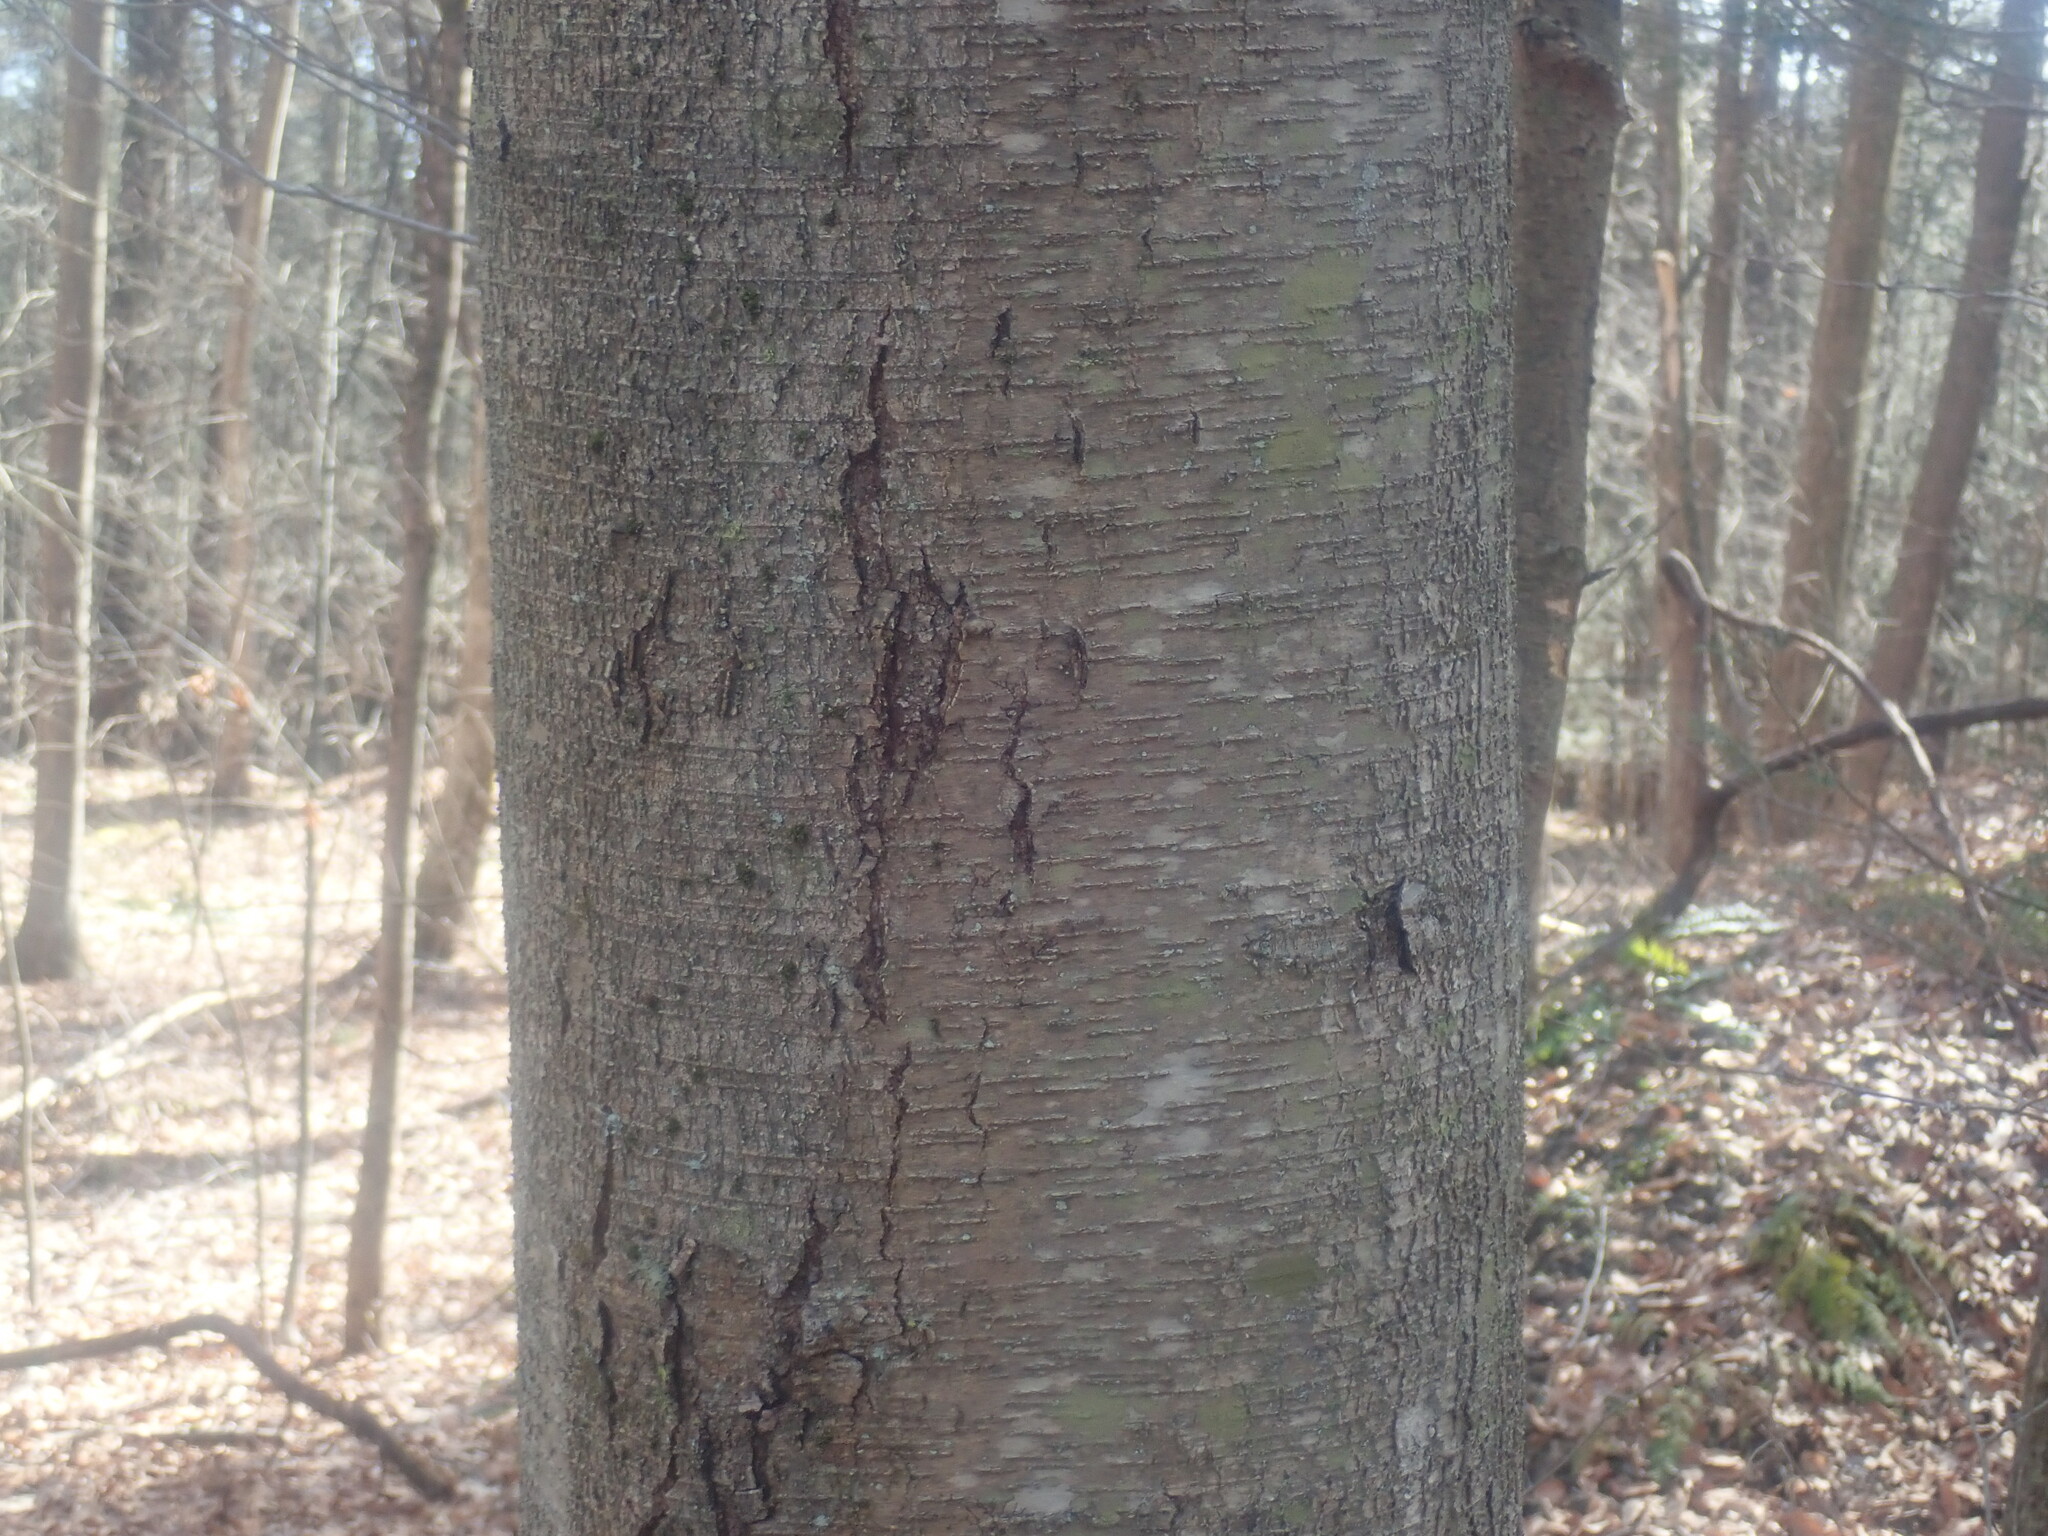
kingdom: Plantae
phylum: Tracheophyta
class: Magnoliopsida
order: Fagales
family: Betulaceae
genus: Betula
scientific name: Betula lenta
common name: Black birch
